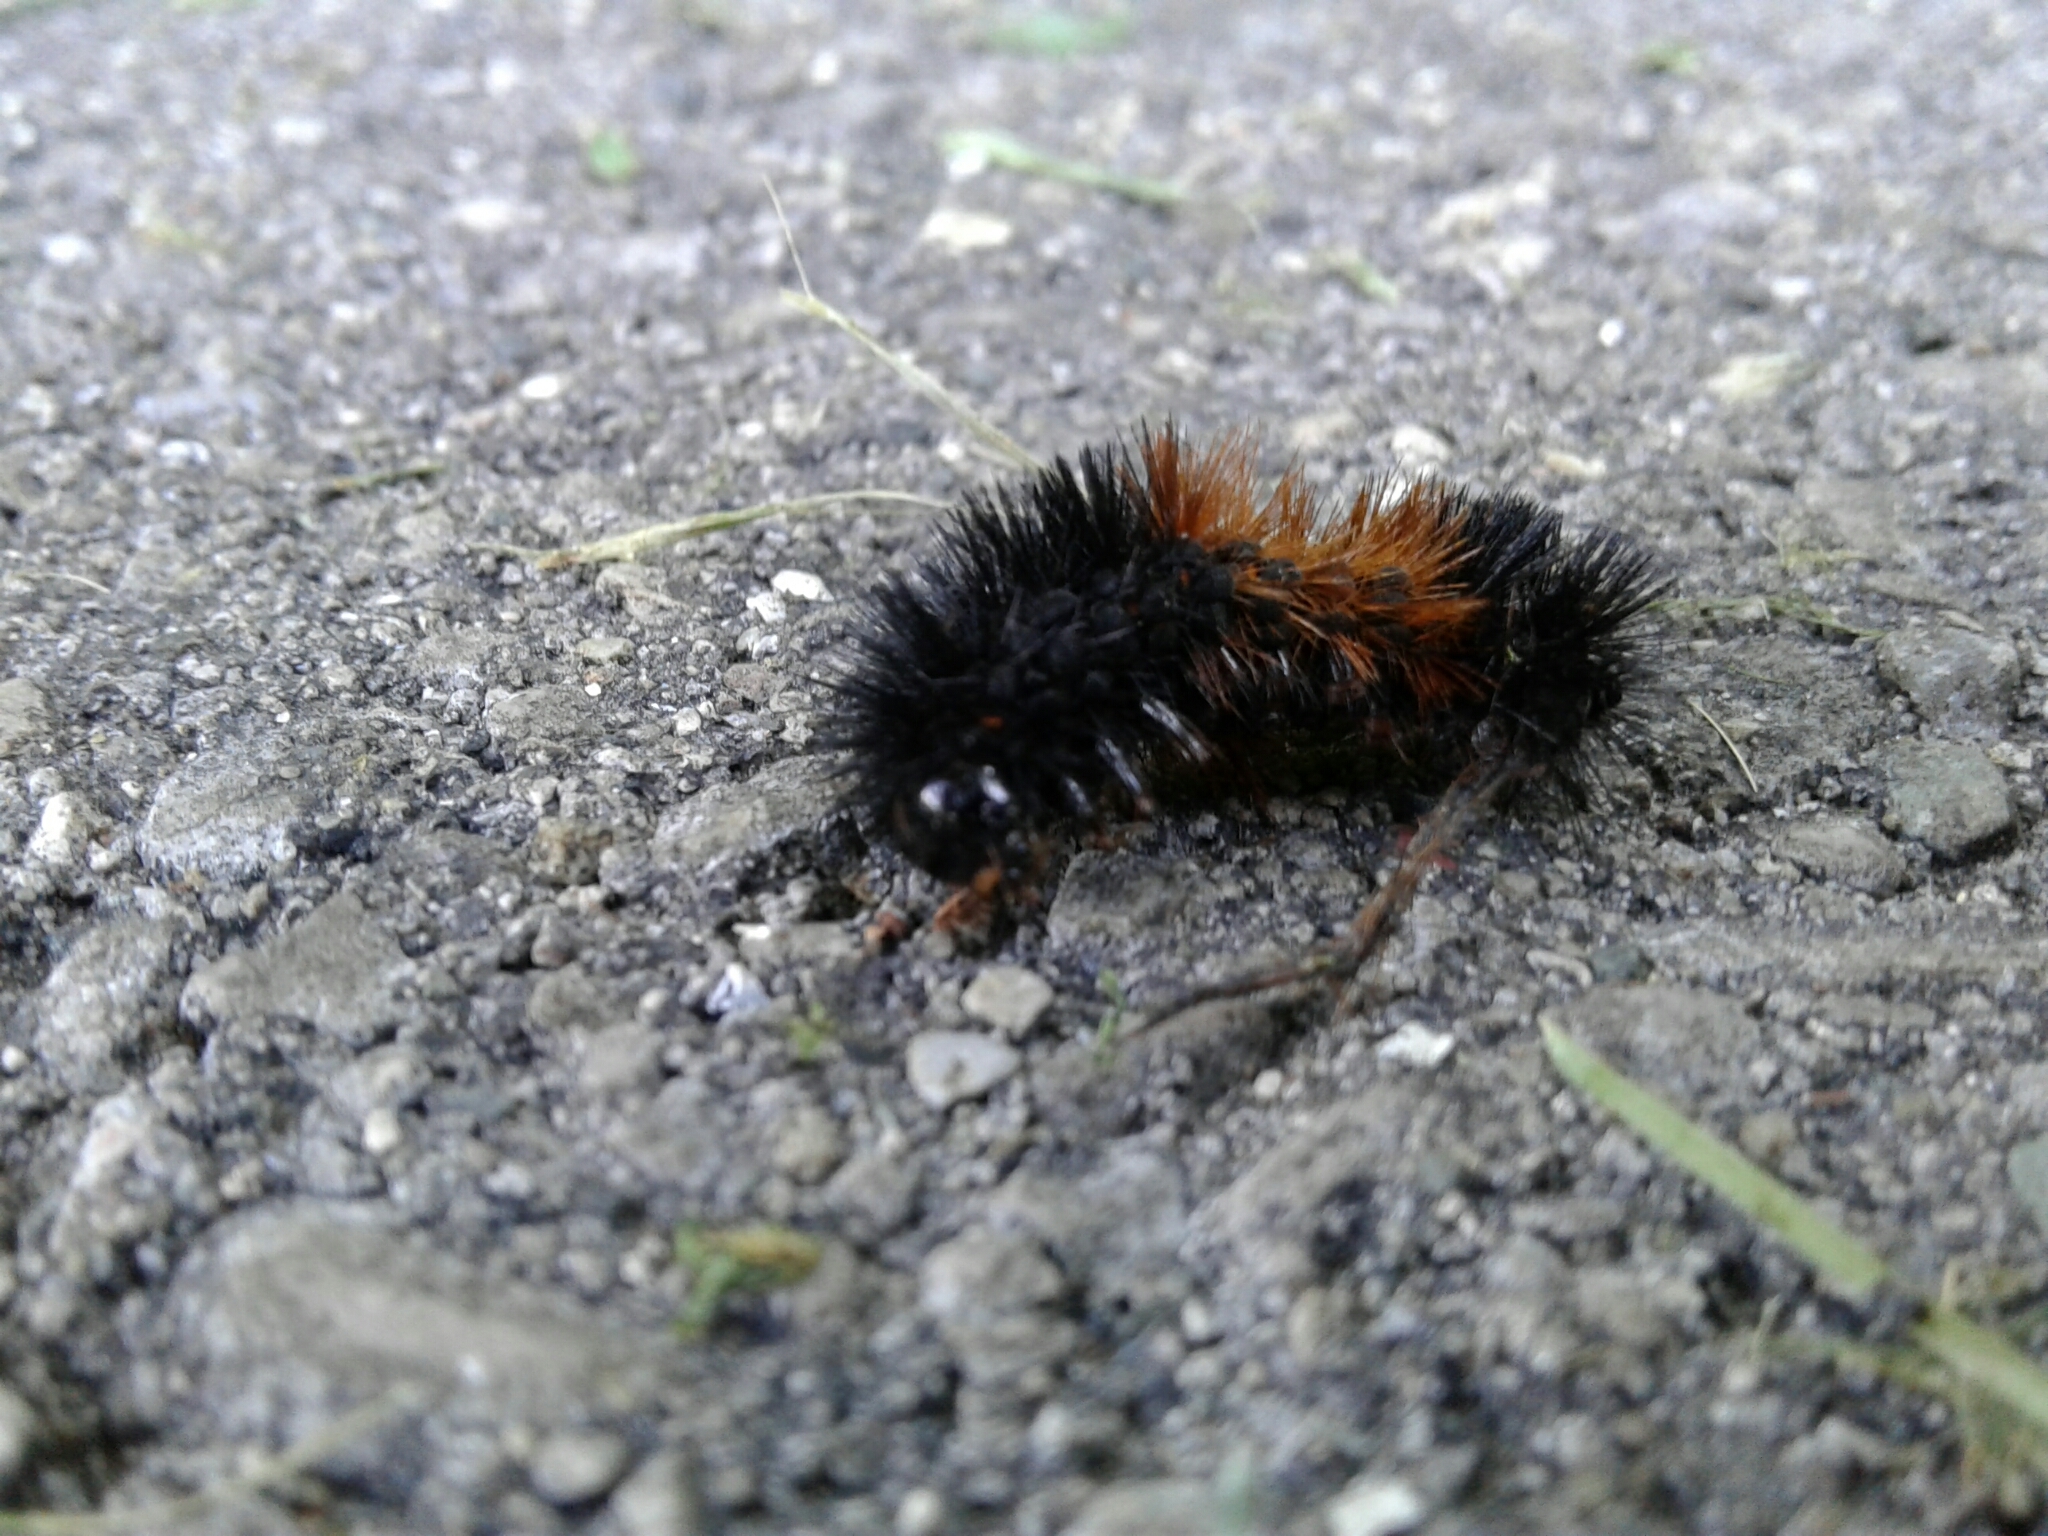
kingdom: Animalia
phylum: Arthropoda
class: Insecta
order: Lepidoptera
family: Erebidae
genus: Pyrrharctia
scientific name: Pyrrharctia isabella
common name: Isabella tiger moth
